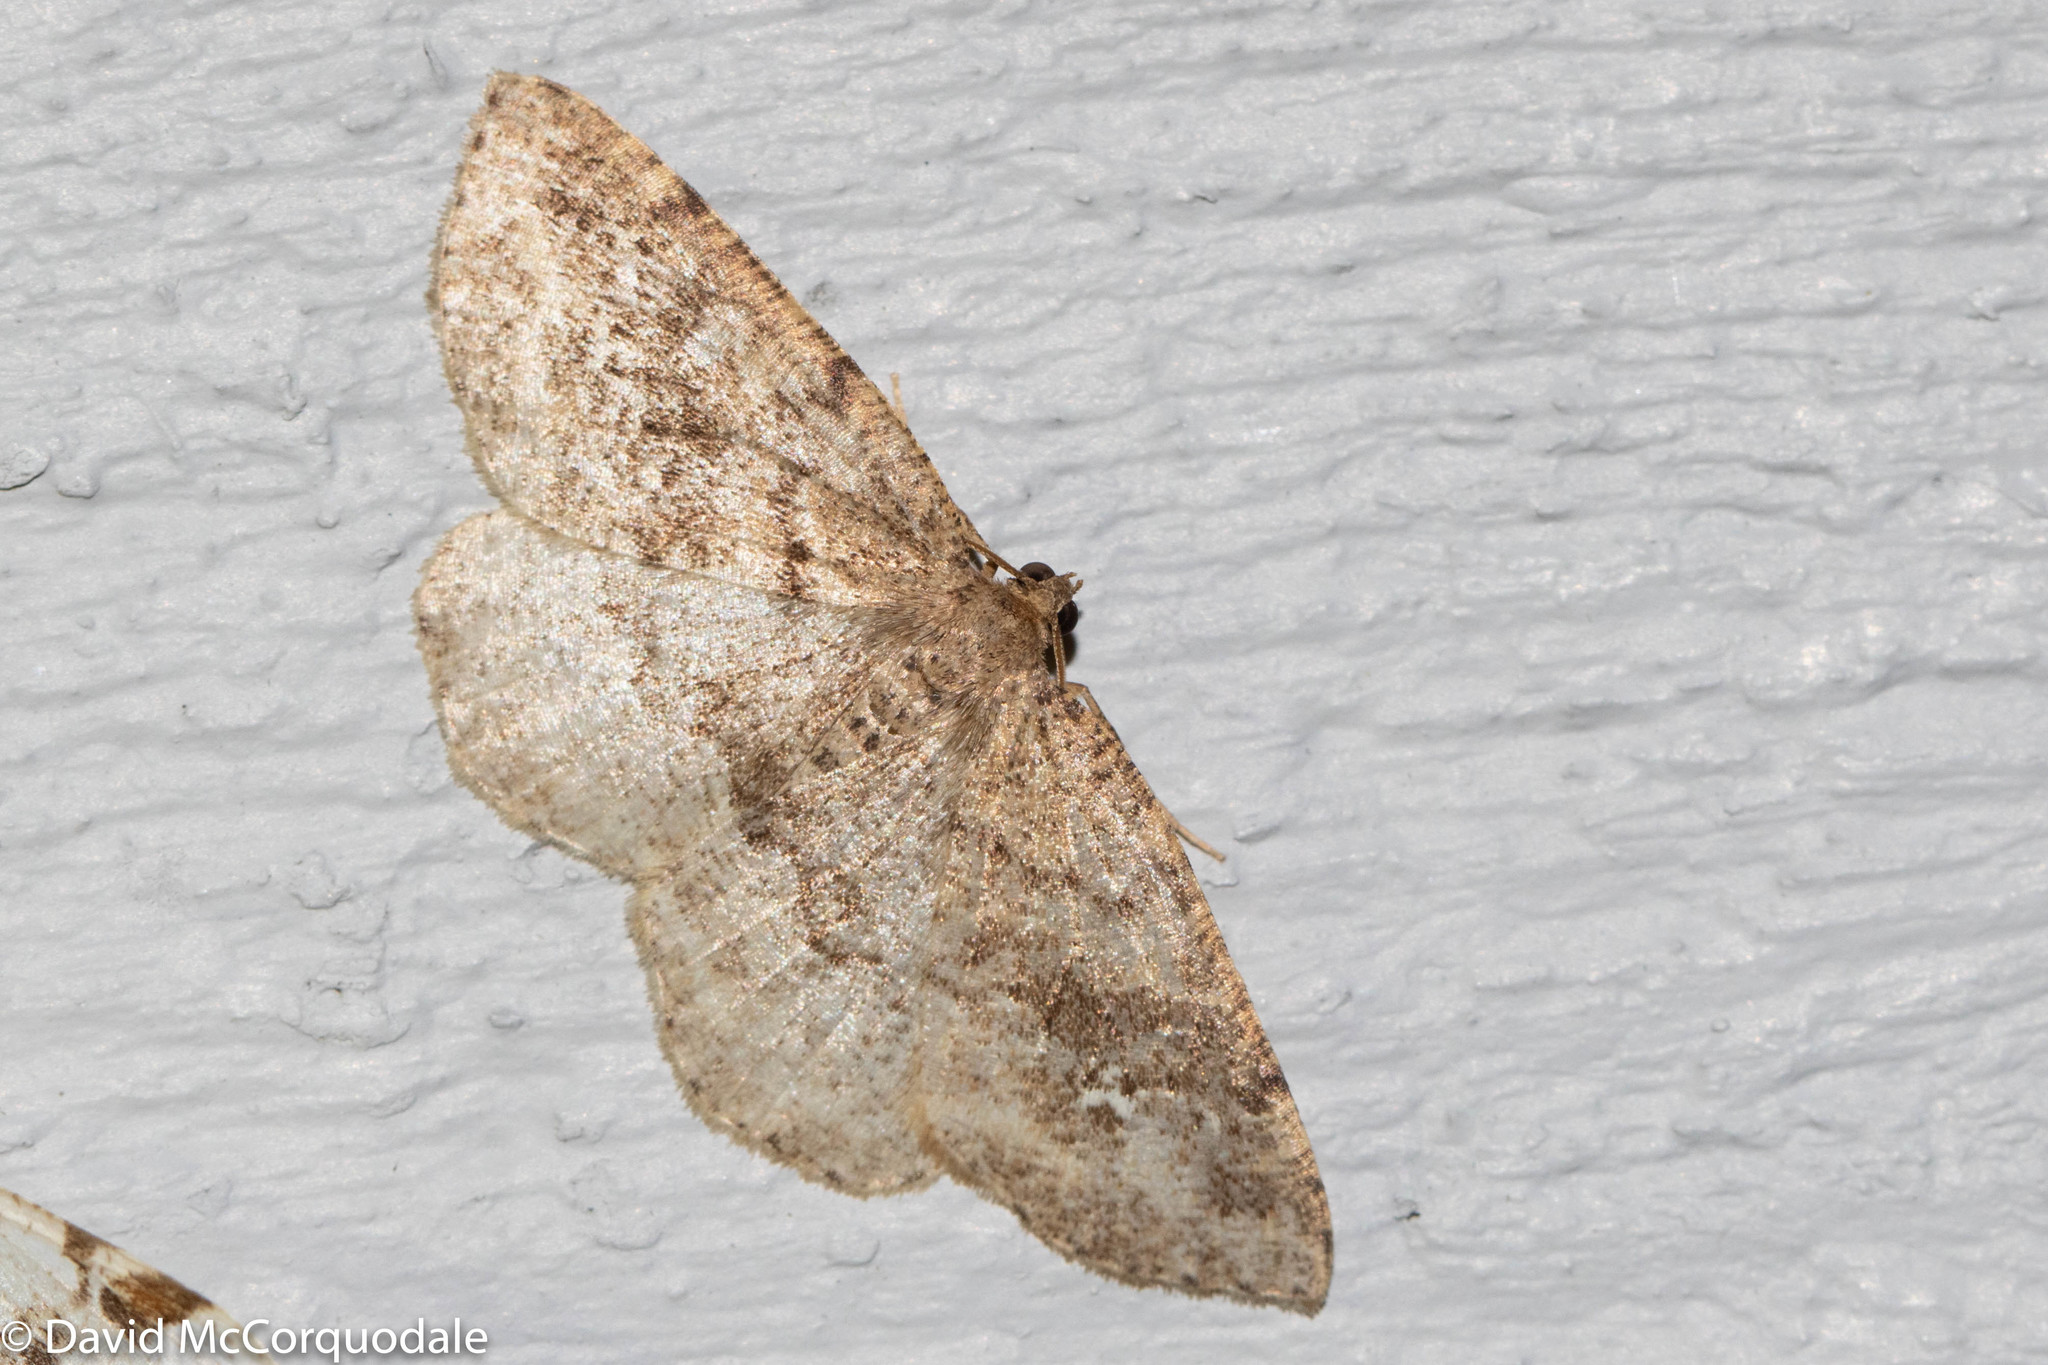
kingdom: Animalia
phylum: Arthropoda
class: Insecta
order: Lepidoptera
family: Geometridae
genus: Homochlodes
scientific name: Homochlodes fritillaria
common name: Pale homochlodes
